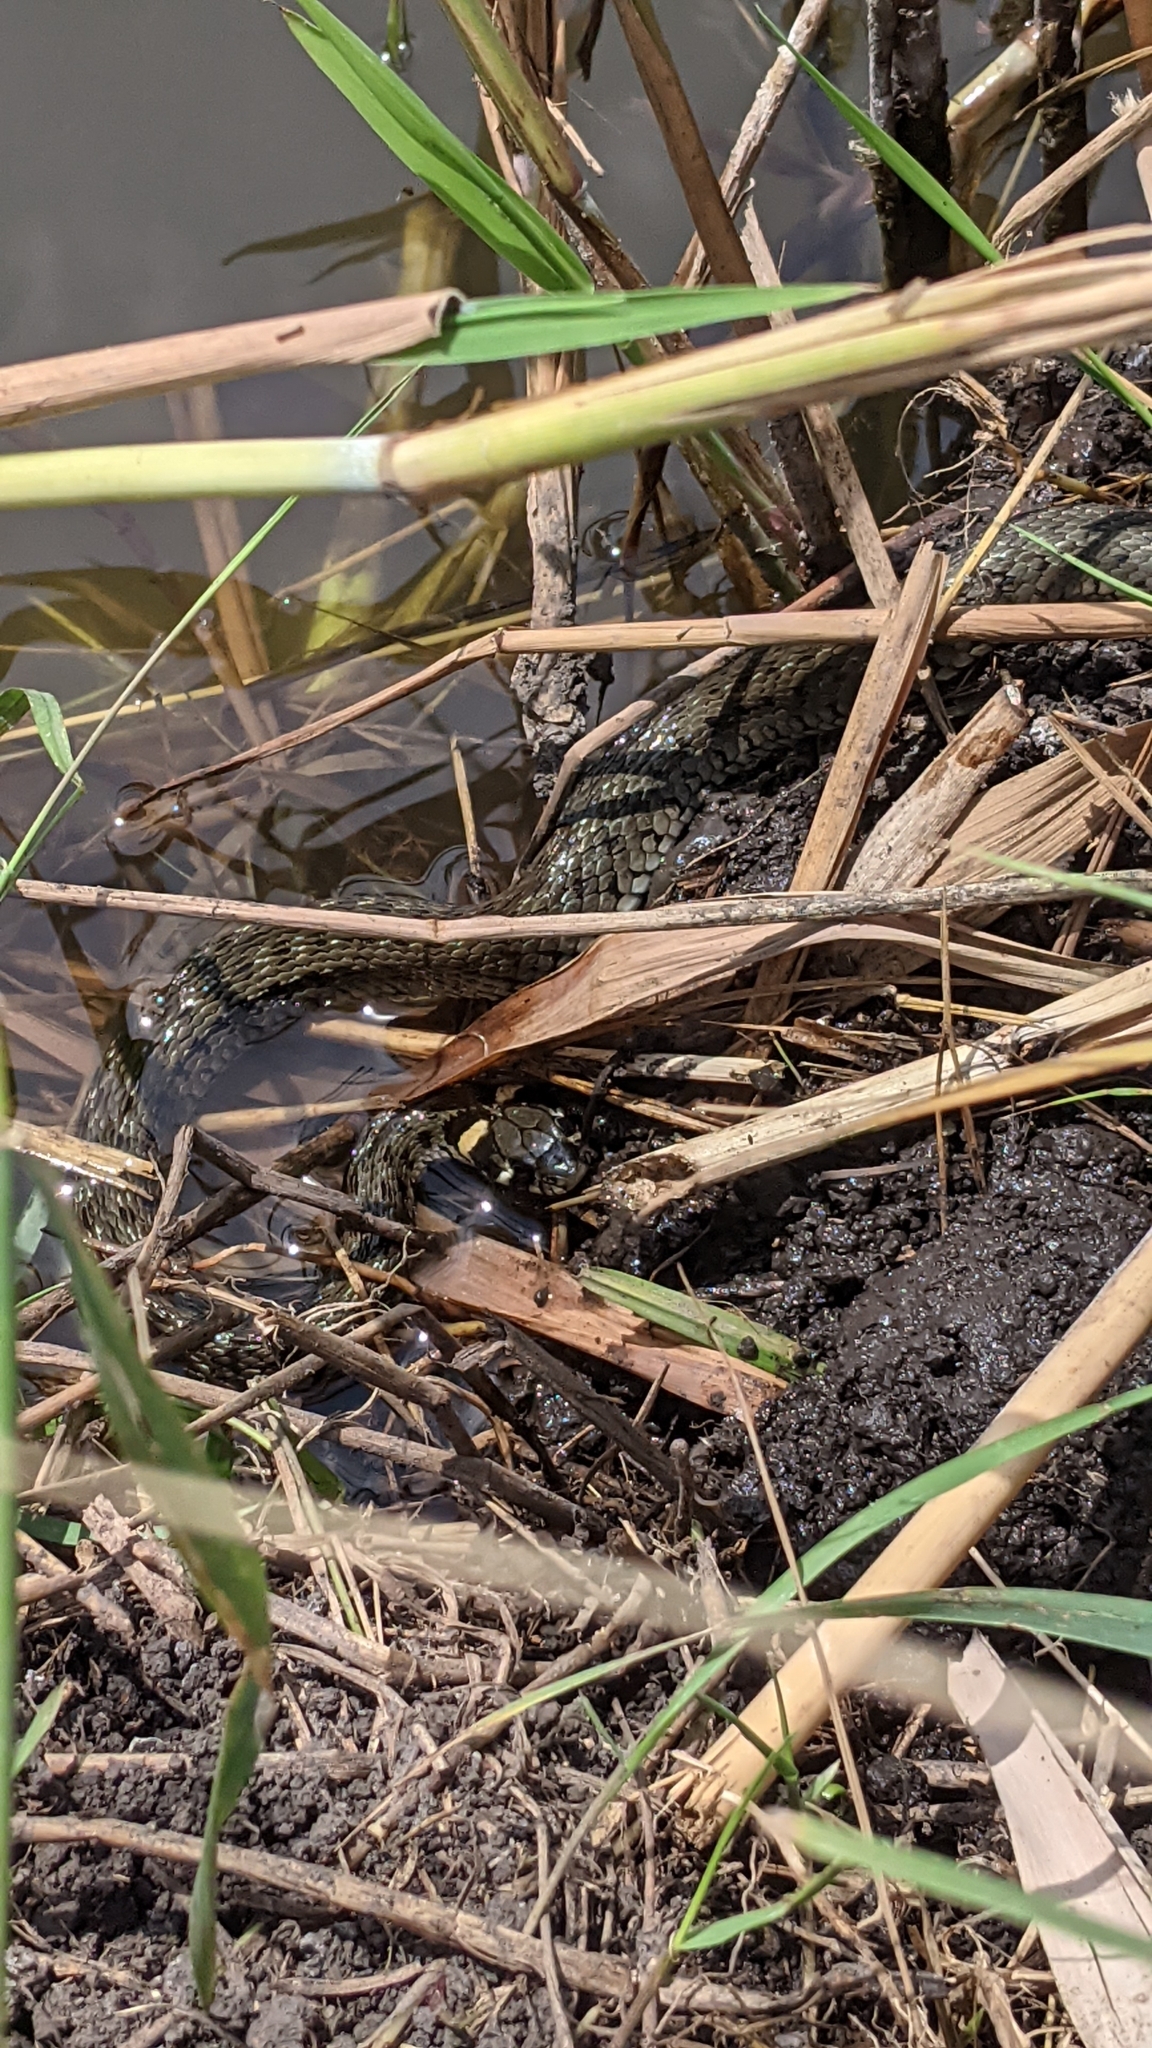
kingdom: Animalia
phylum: Chordata
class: Squamata
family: Colubridae
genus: Natrix
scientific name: Natrix natrix
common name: Grass snake
